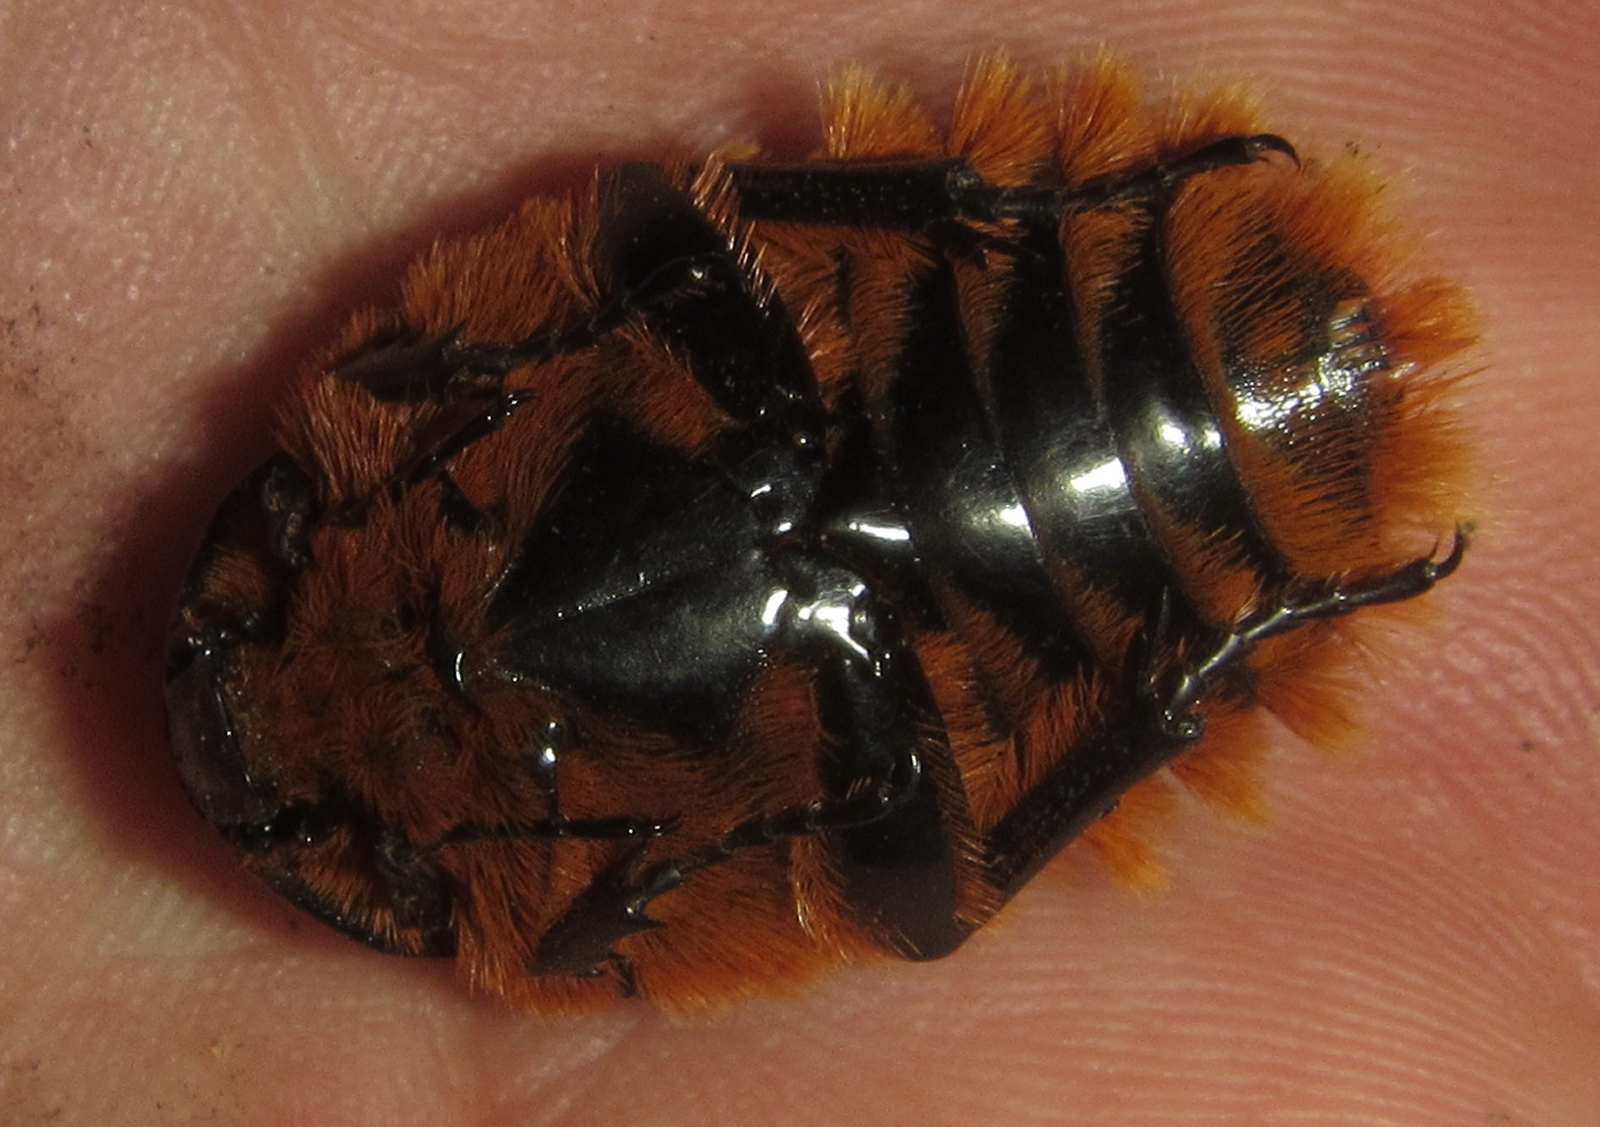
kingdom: Animalia
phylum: Arthropoda
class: Insecta
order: Coleoptera
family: Scarabaeidae
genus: Trichostetha
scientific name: Trichostetha fascicularis
